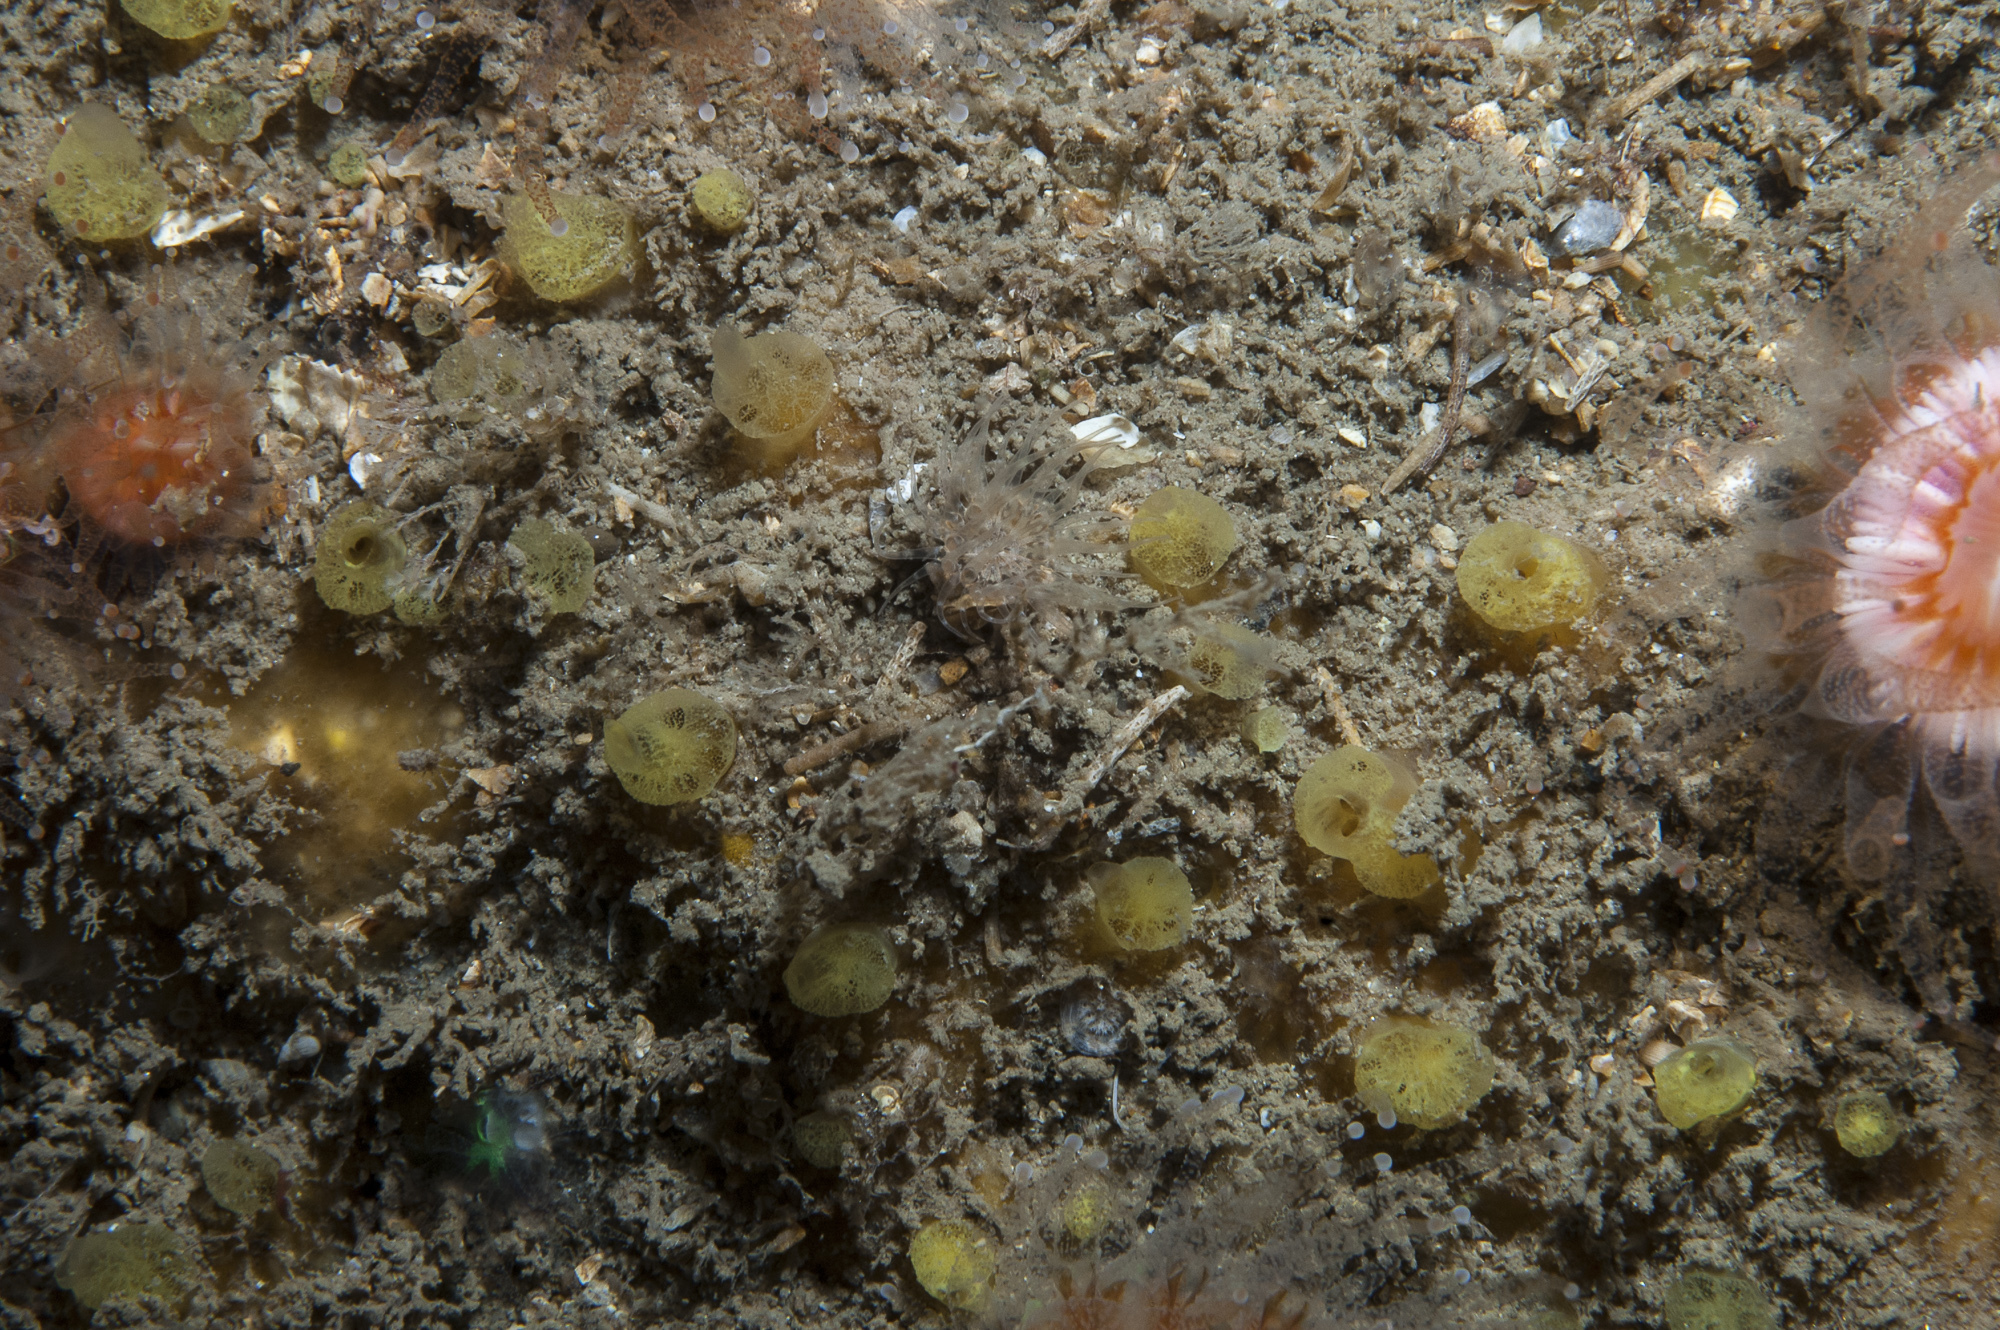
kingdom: Animalia
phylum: Porifera
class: Demospongiae
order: Poecilosclerida
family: Hymedesmiidae
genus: Hymedesmia
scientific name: Hymedesmia rathlinia
